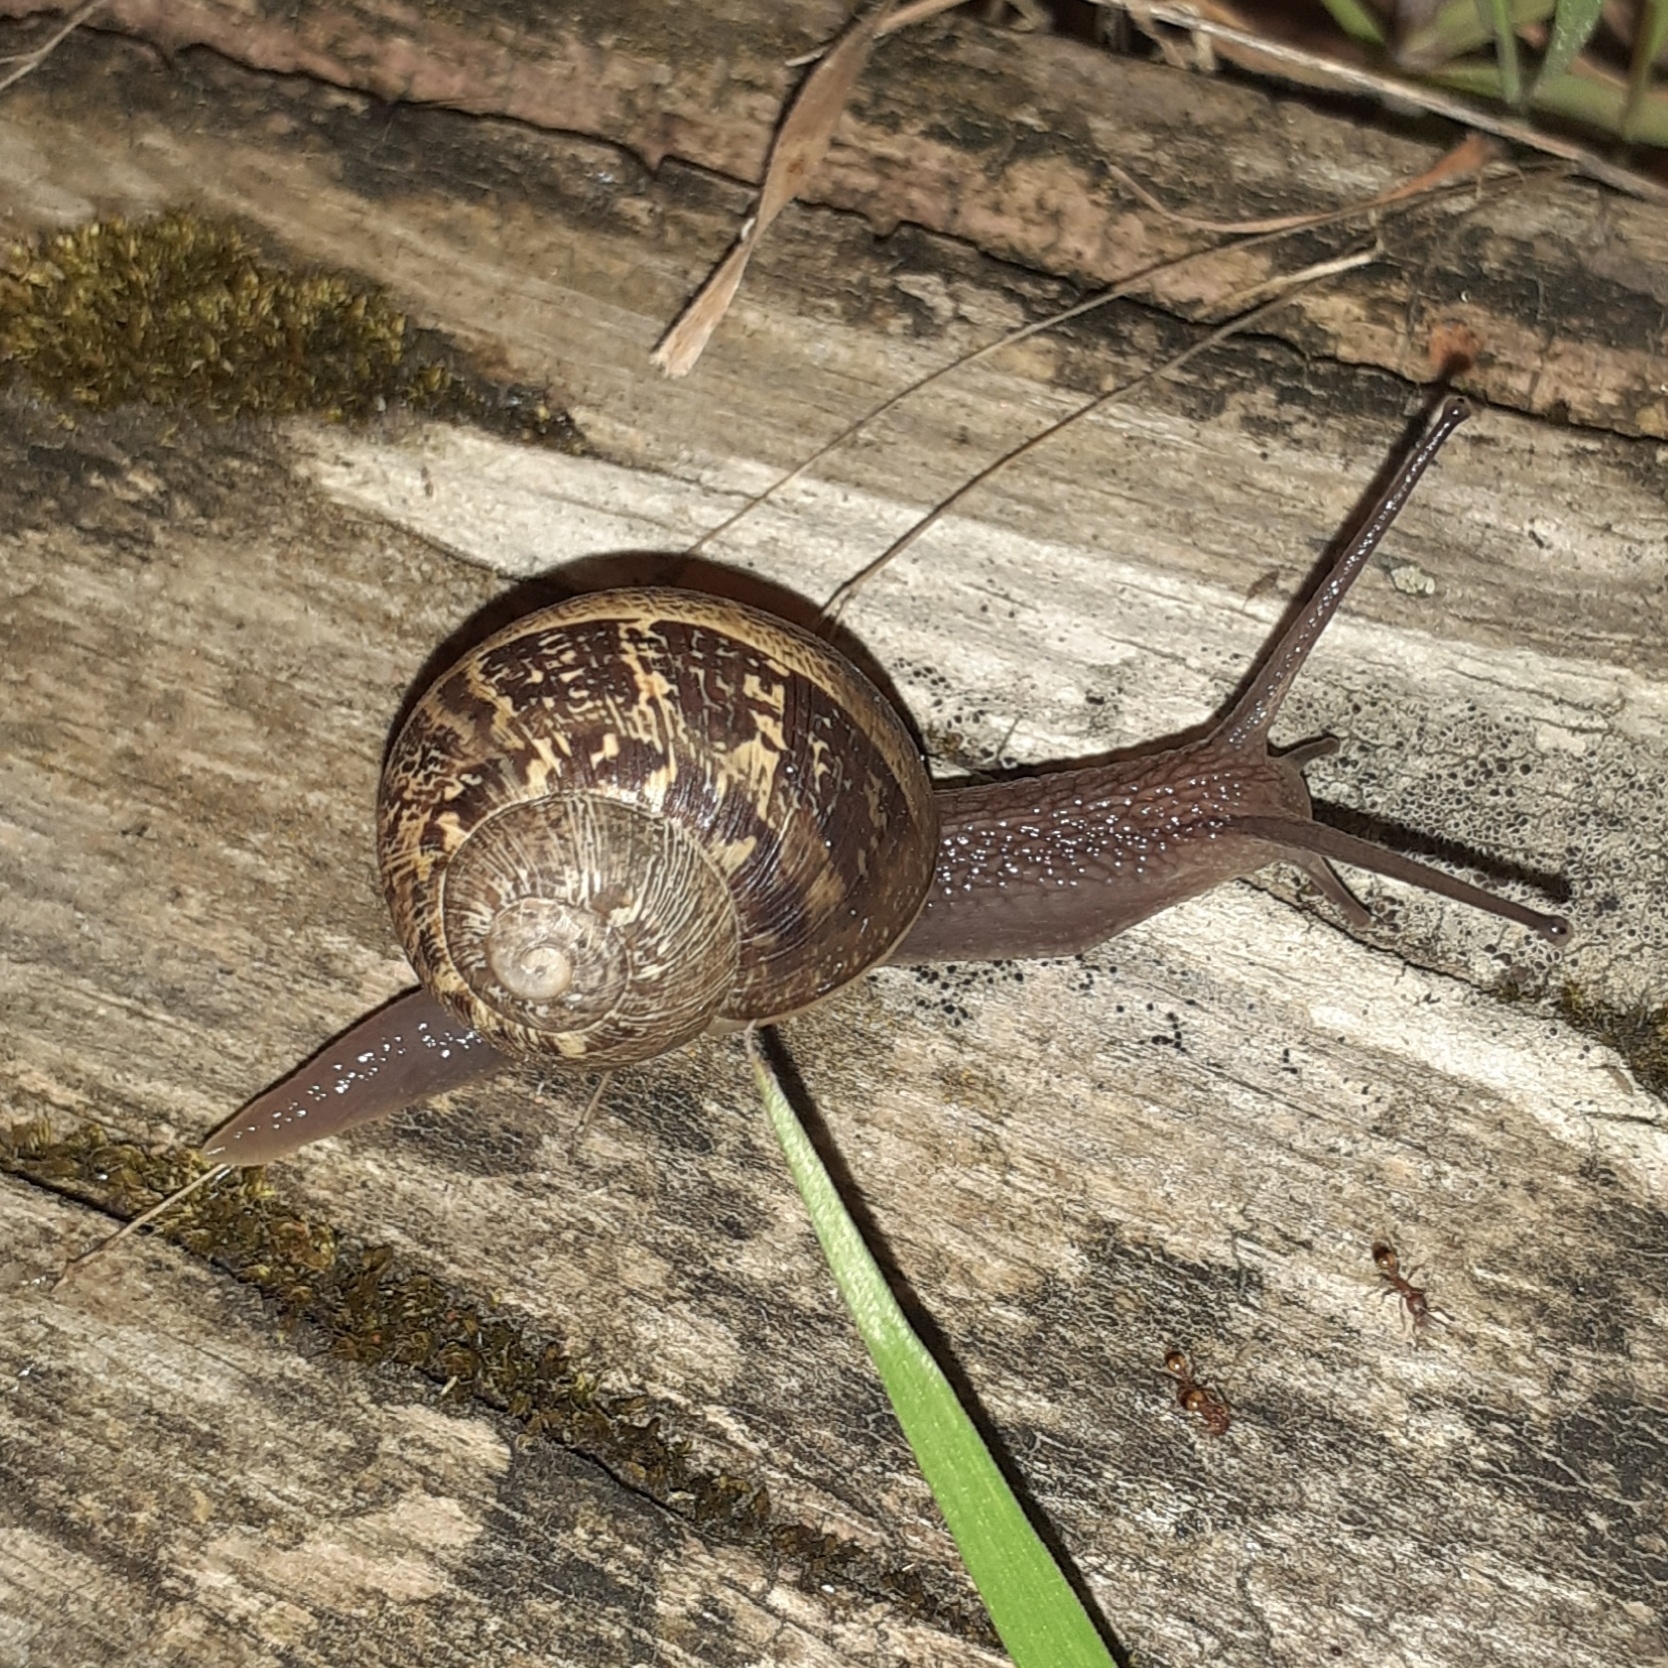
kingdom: Animalia
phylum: Mollusca
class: Gastropoda
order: Stylommatophora
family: Helicidae
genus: Cornu
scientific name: Cornu aspersum
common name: Brown garden snail
